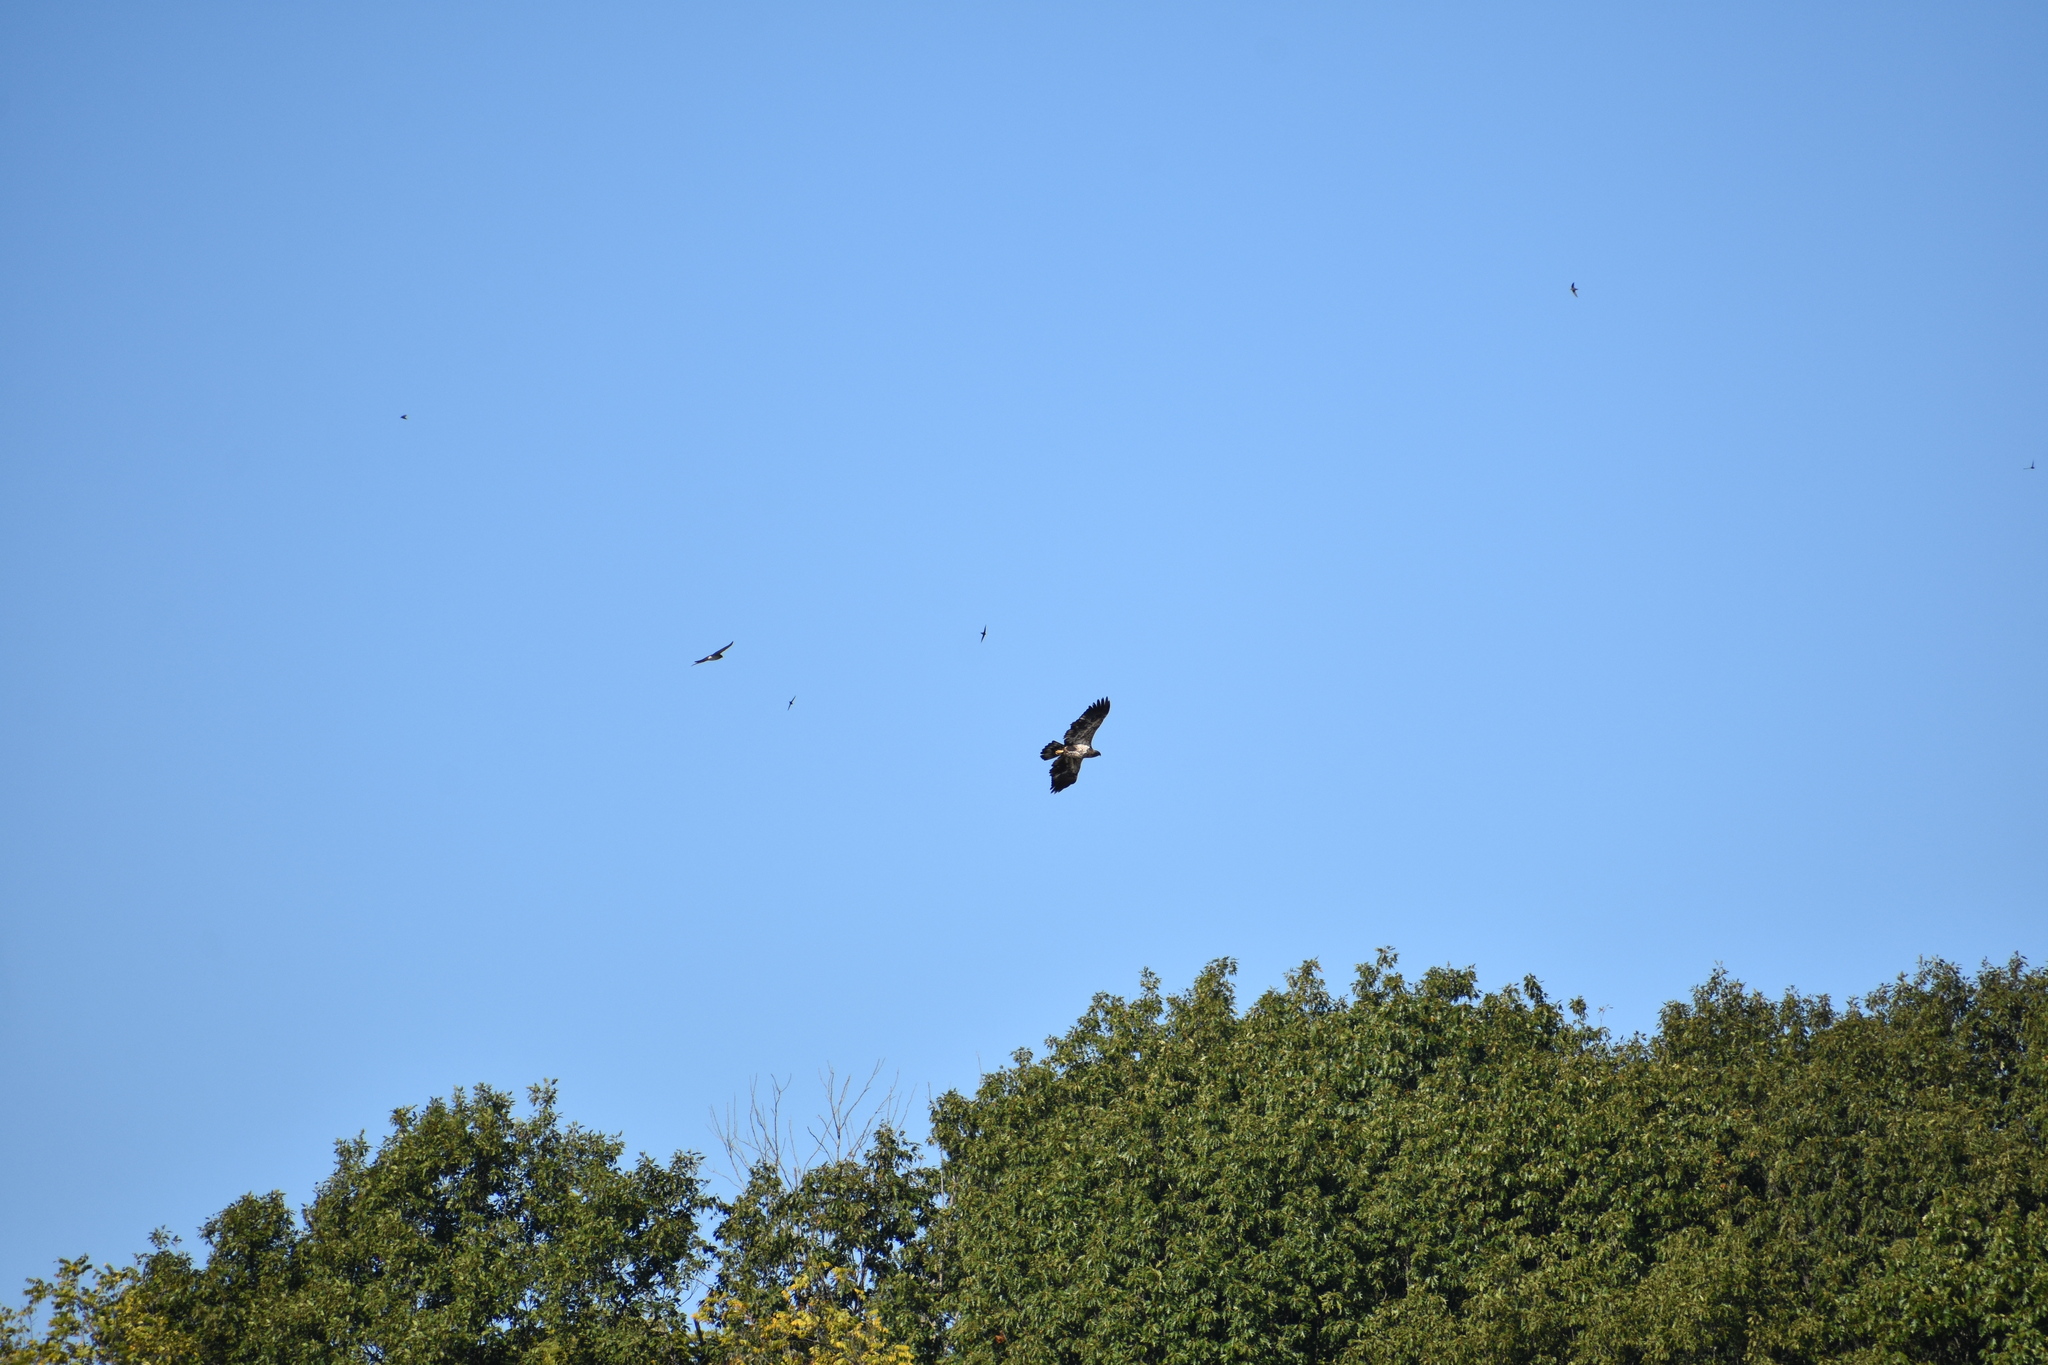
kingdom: Animalia
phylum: Chordata
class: Aves
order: Accipitriformes
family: Accipitridae
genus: Haliaeetus
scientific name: Haliaeetus leucocephalus
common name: Bald eagle
